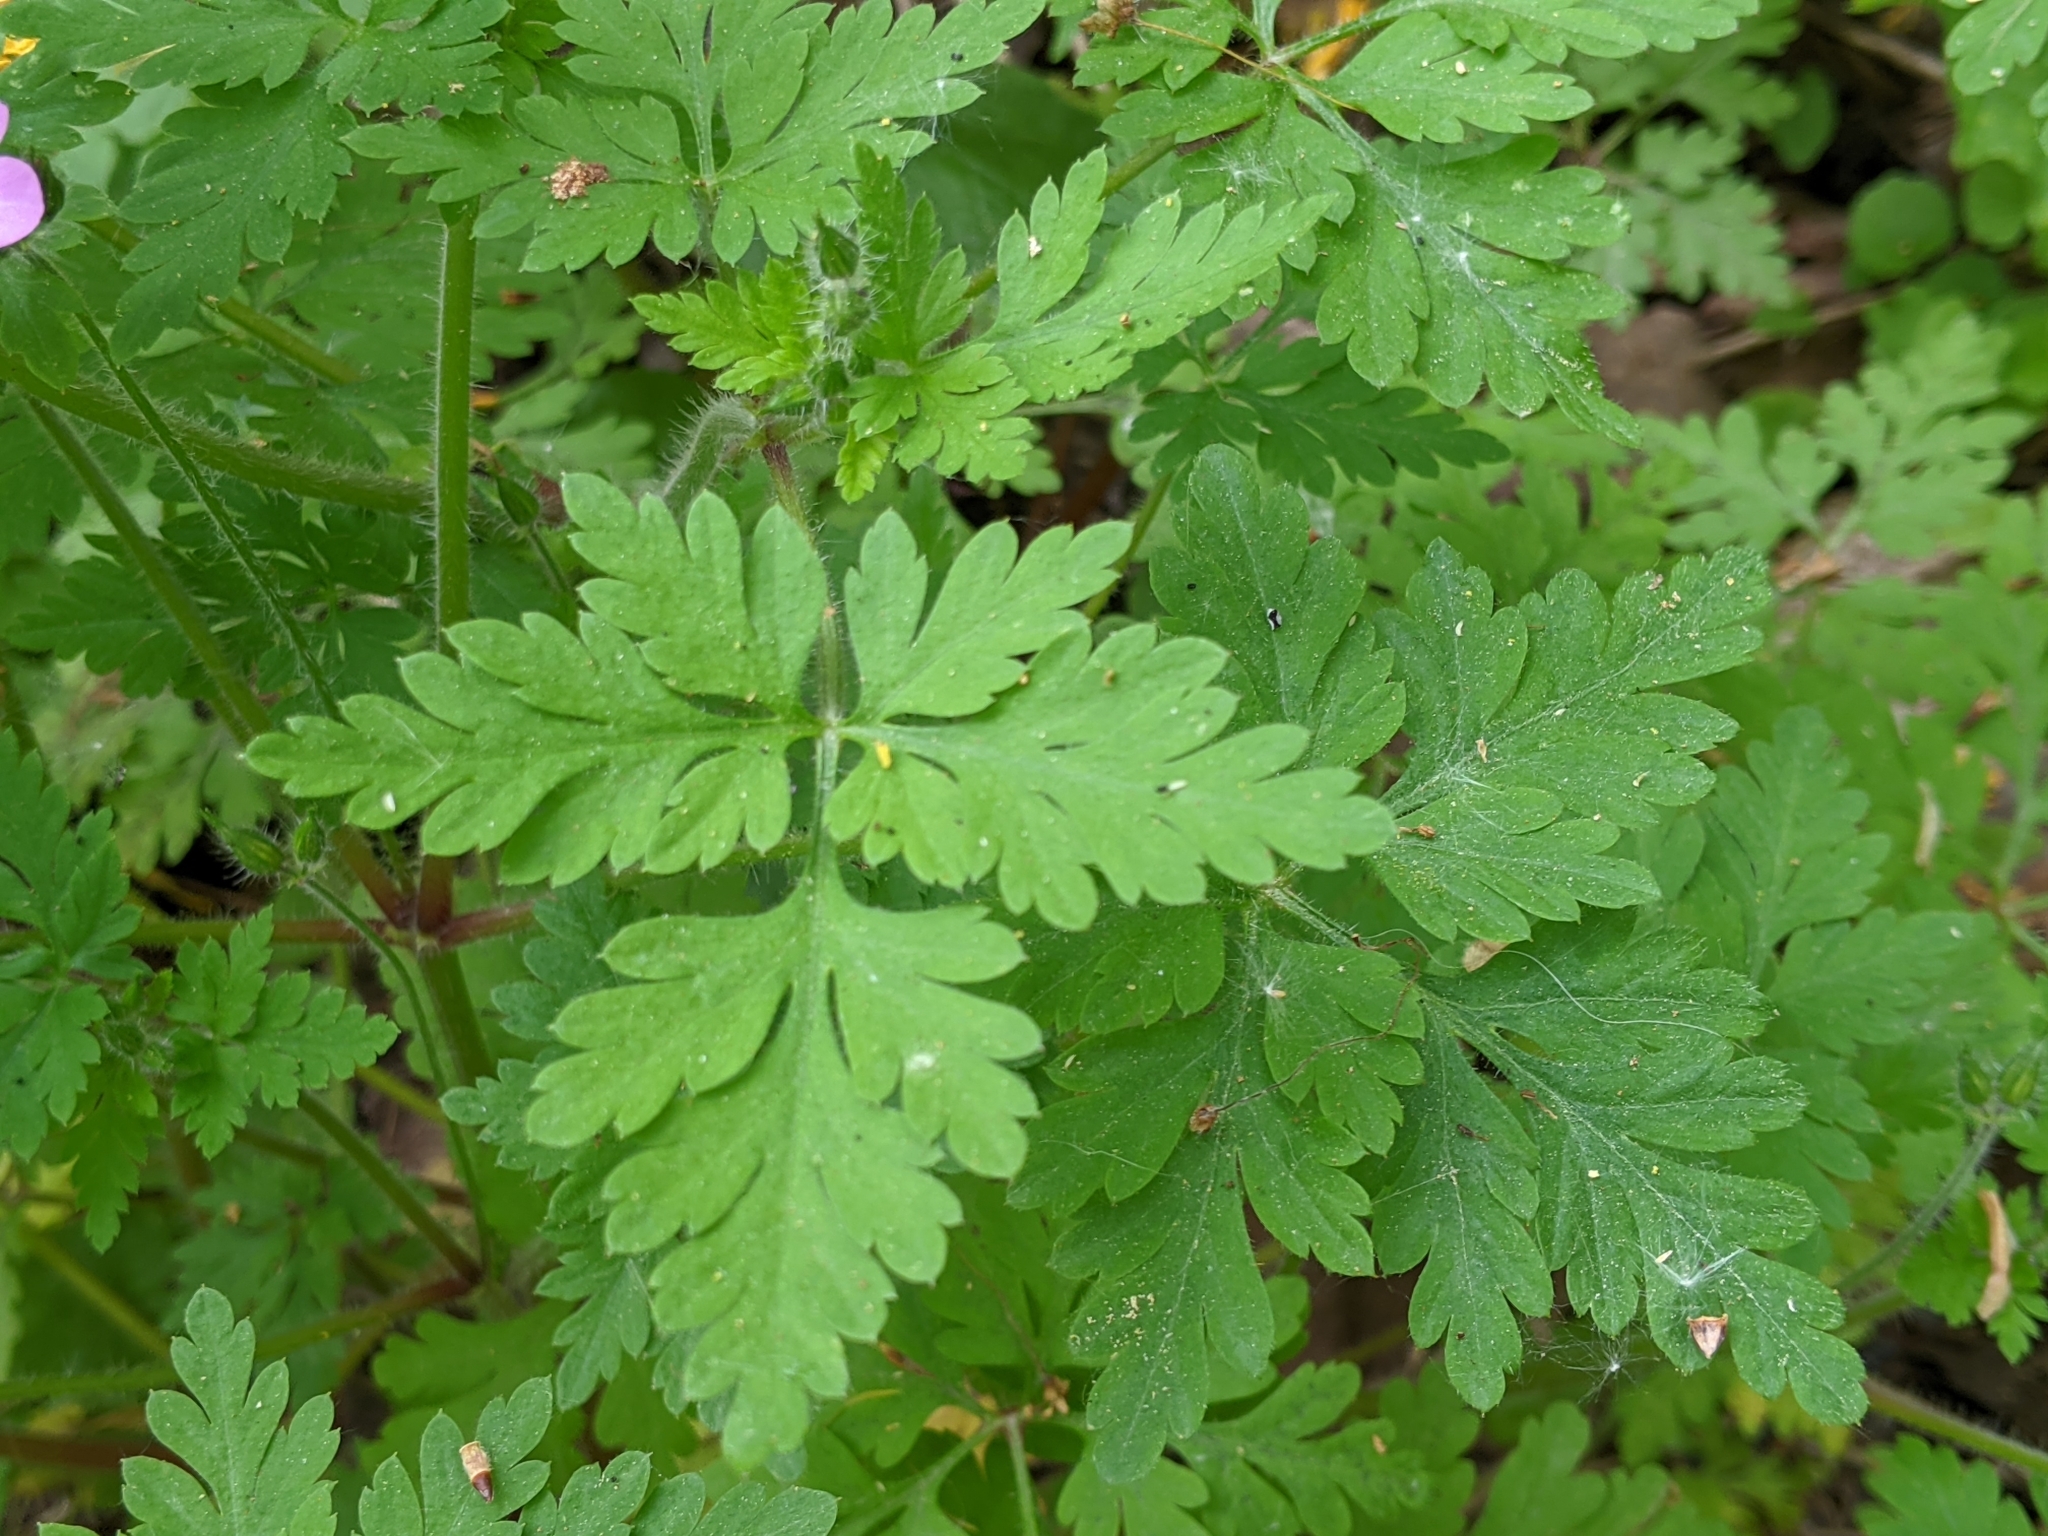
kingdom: Plantae
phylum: Tracheophyta
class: Magnoliopsida
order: Geraniales
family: Geraniaceae
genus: Geranium
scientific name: Geranium robertianum
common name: Herb-robert
